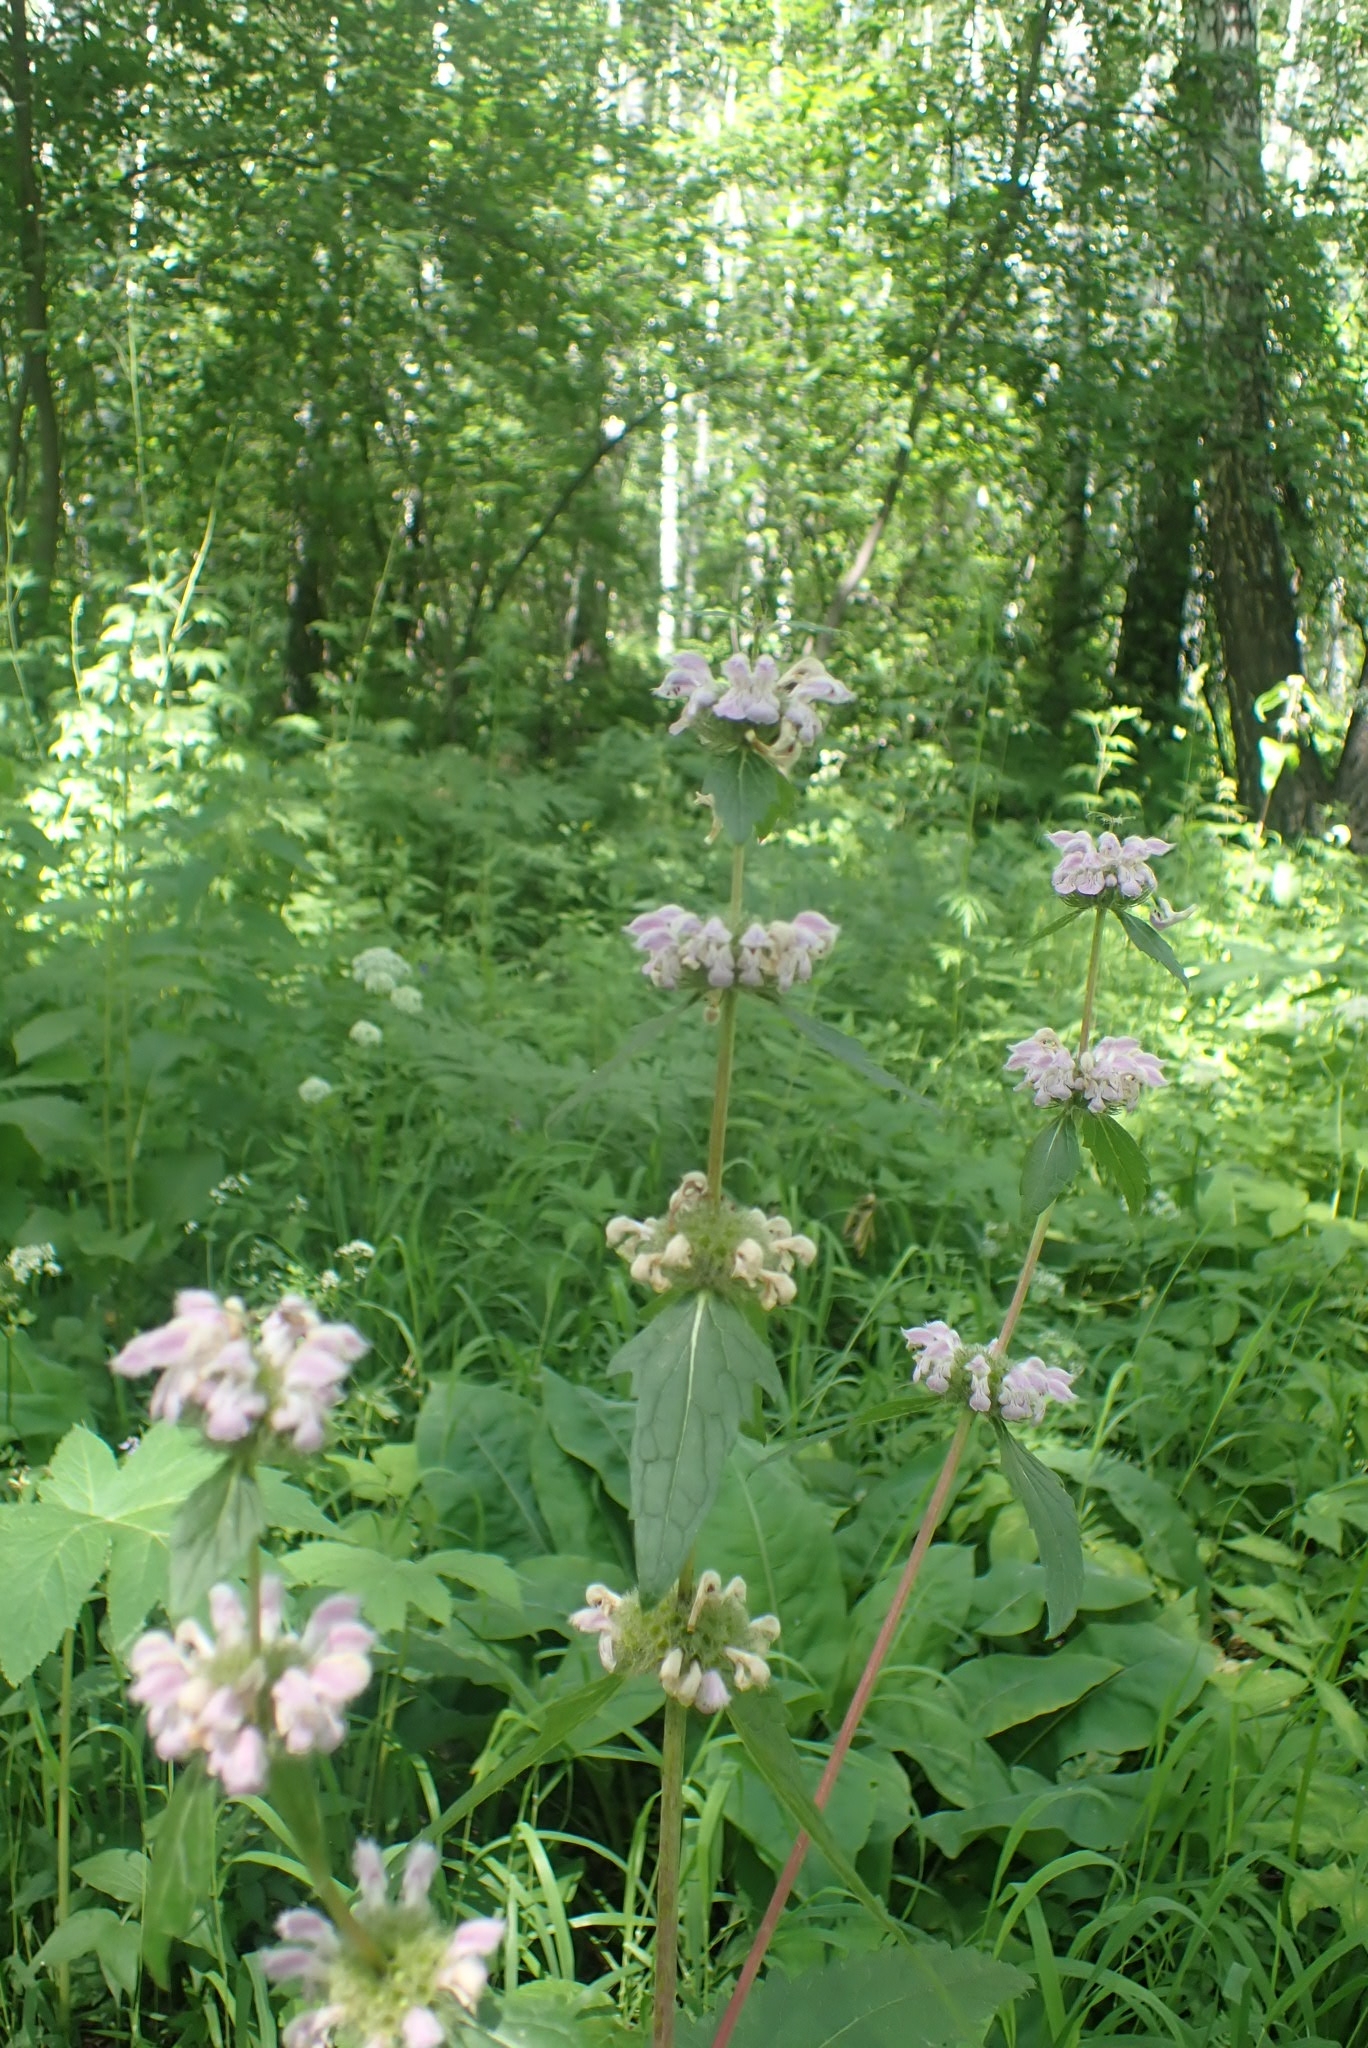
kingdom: Plantae
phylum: Tracheophyta
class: Magnoliopsida
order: Lamiales
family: Lamiaceae
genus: Phlomoides
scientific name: Phlomoides tuberosa
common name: Tuberous jerusalem sage
